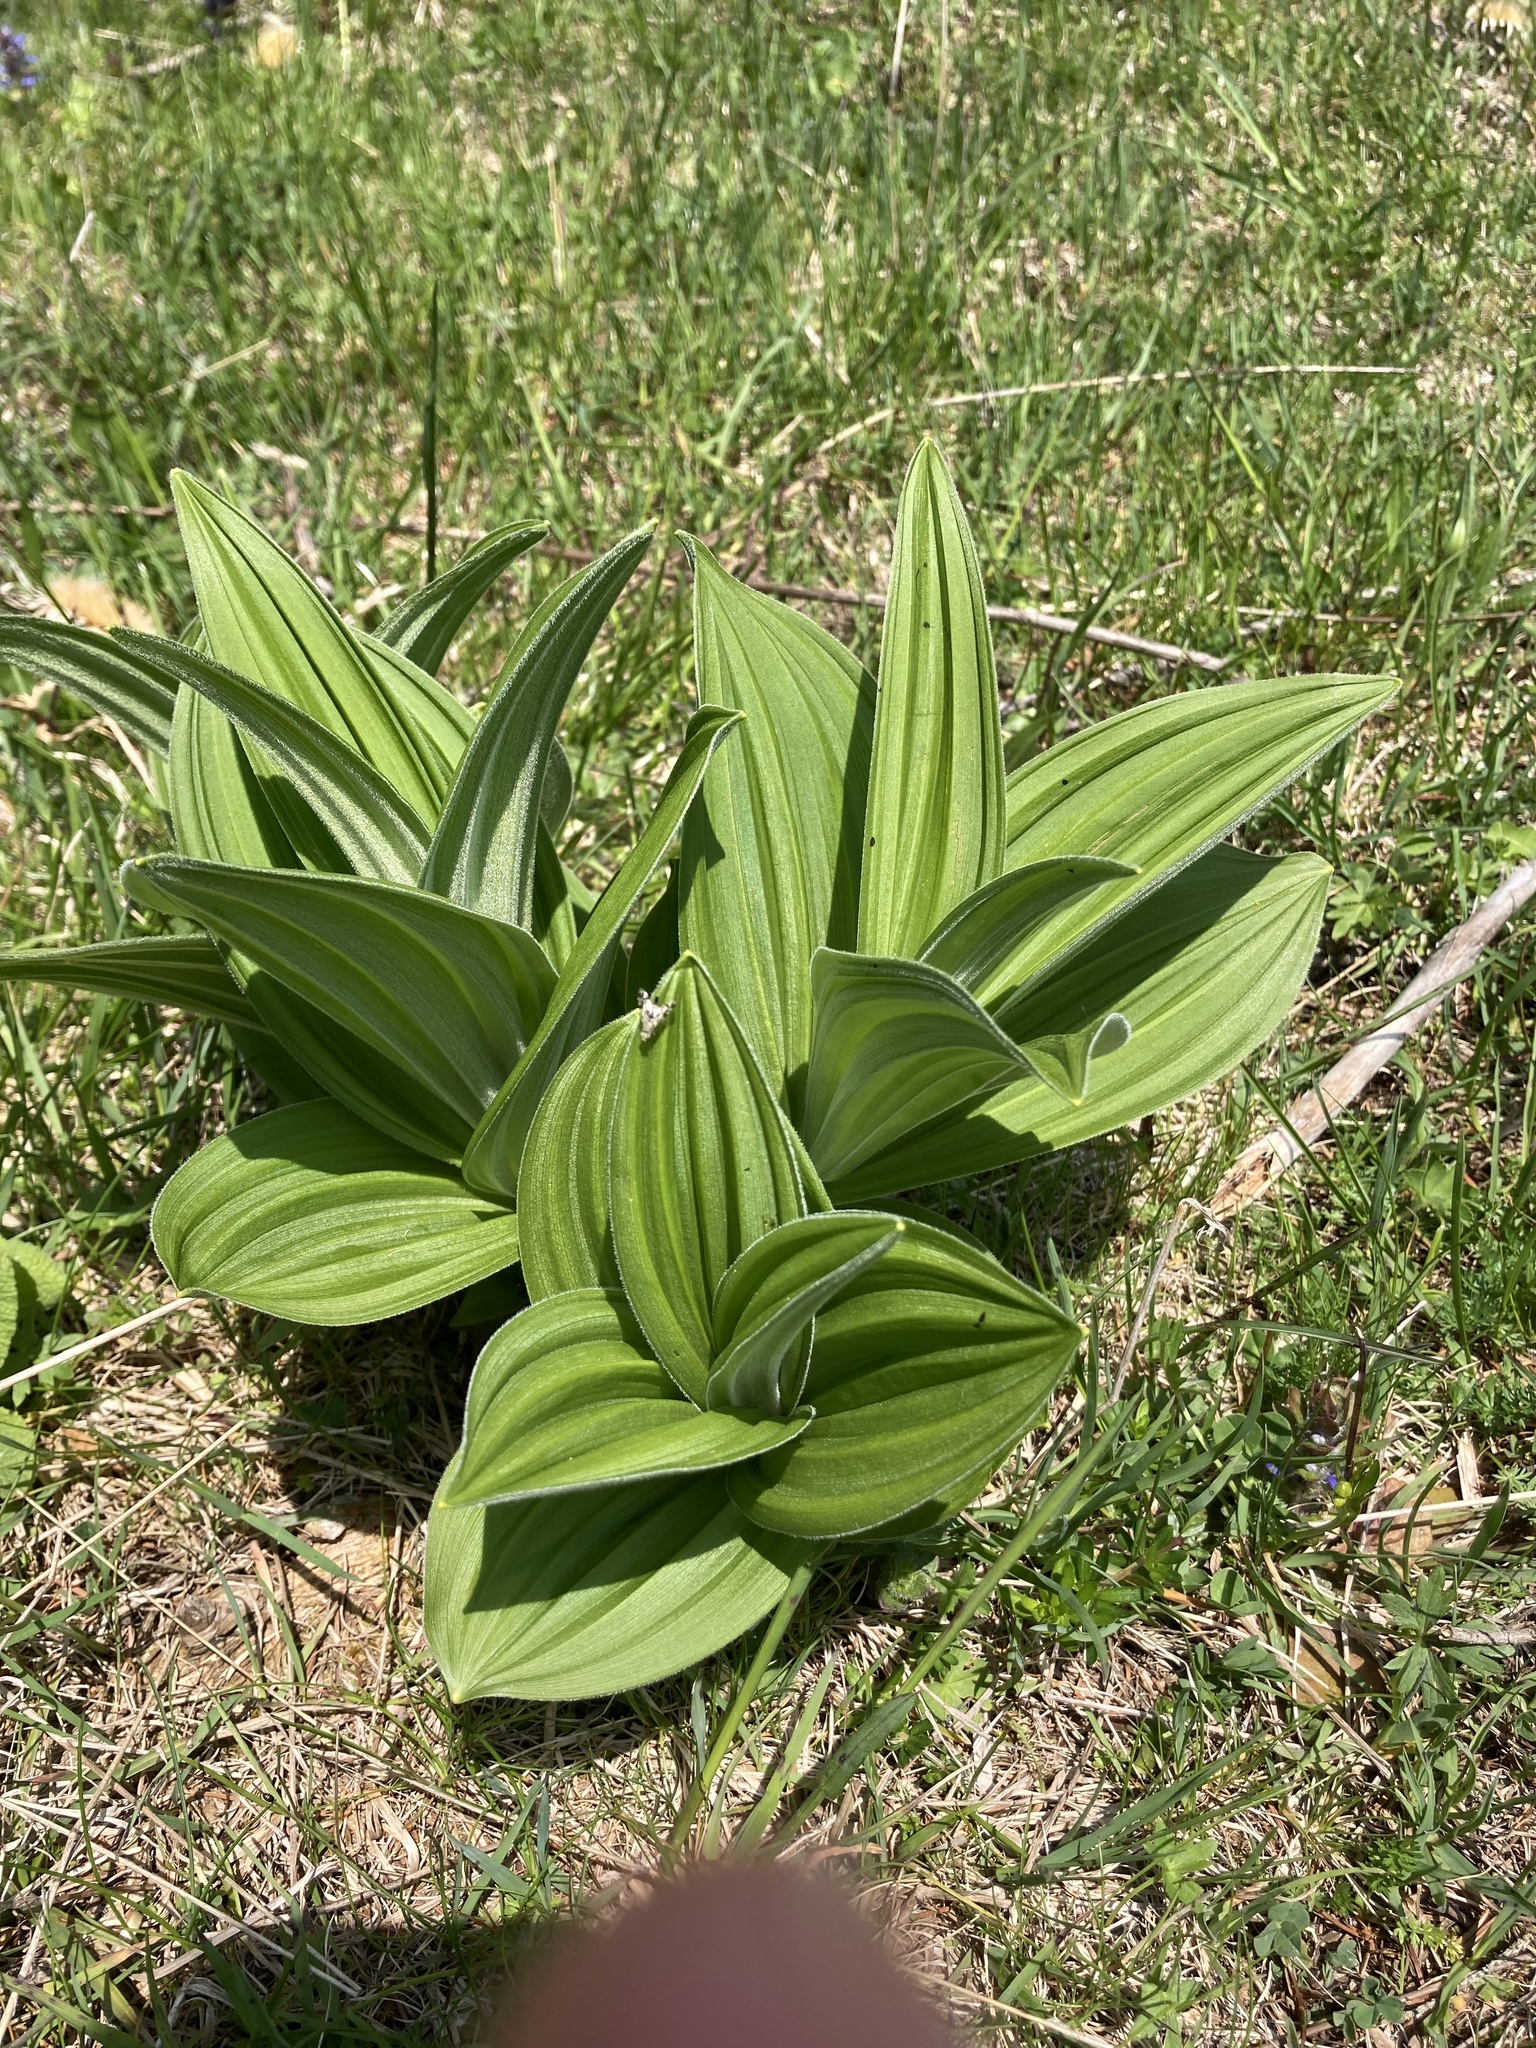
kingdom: Plantae
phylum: Tracheophyta
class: Liliopsida
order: Liliales
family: Melanthiaceae
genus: Veratrum
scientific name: Veratrum album
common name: White veratrum
